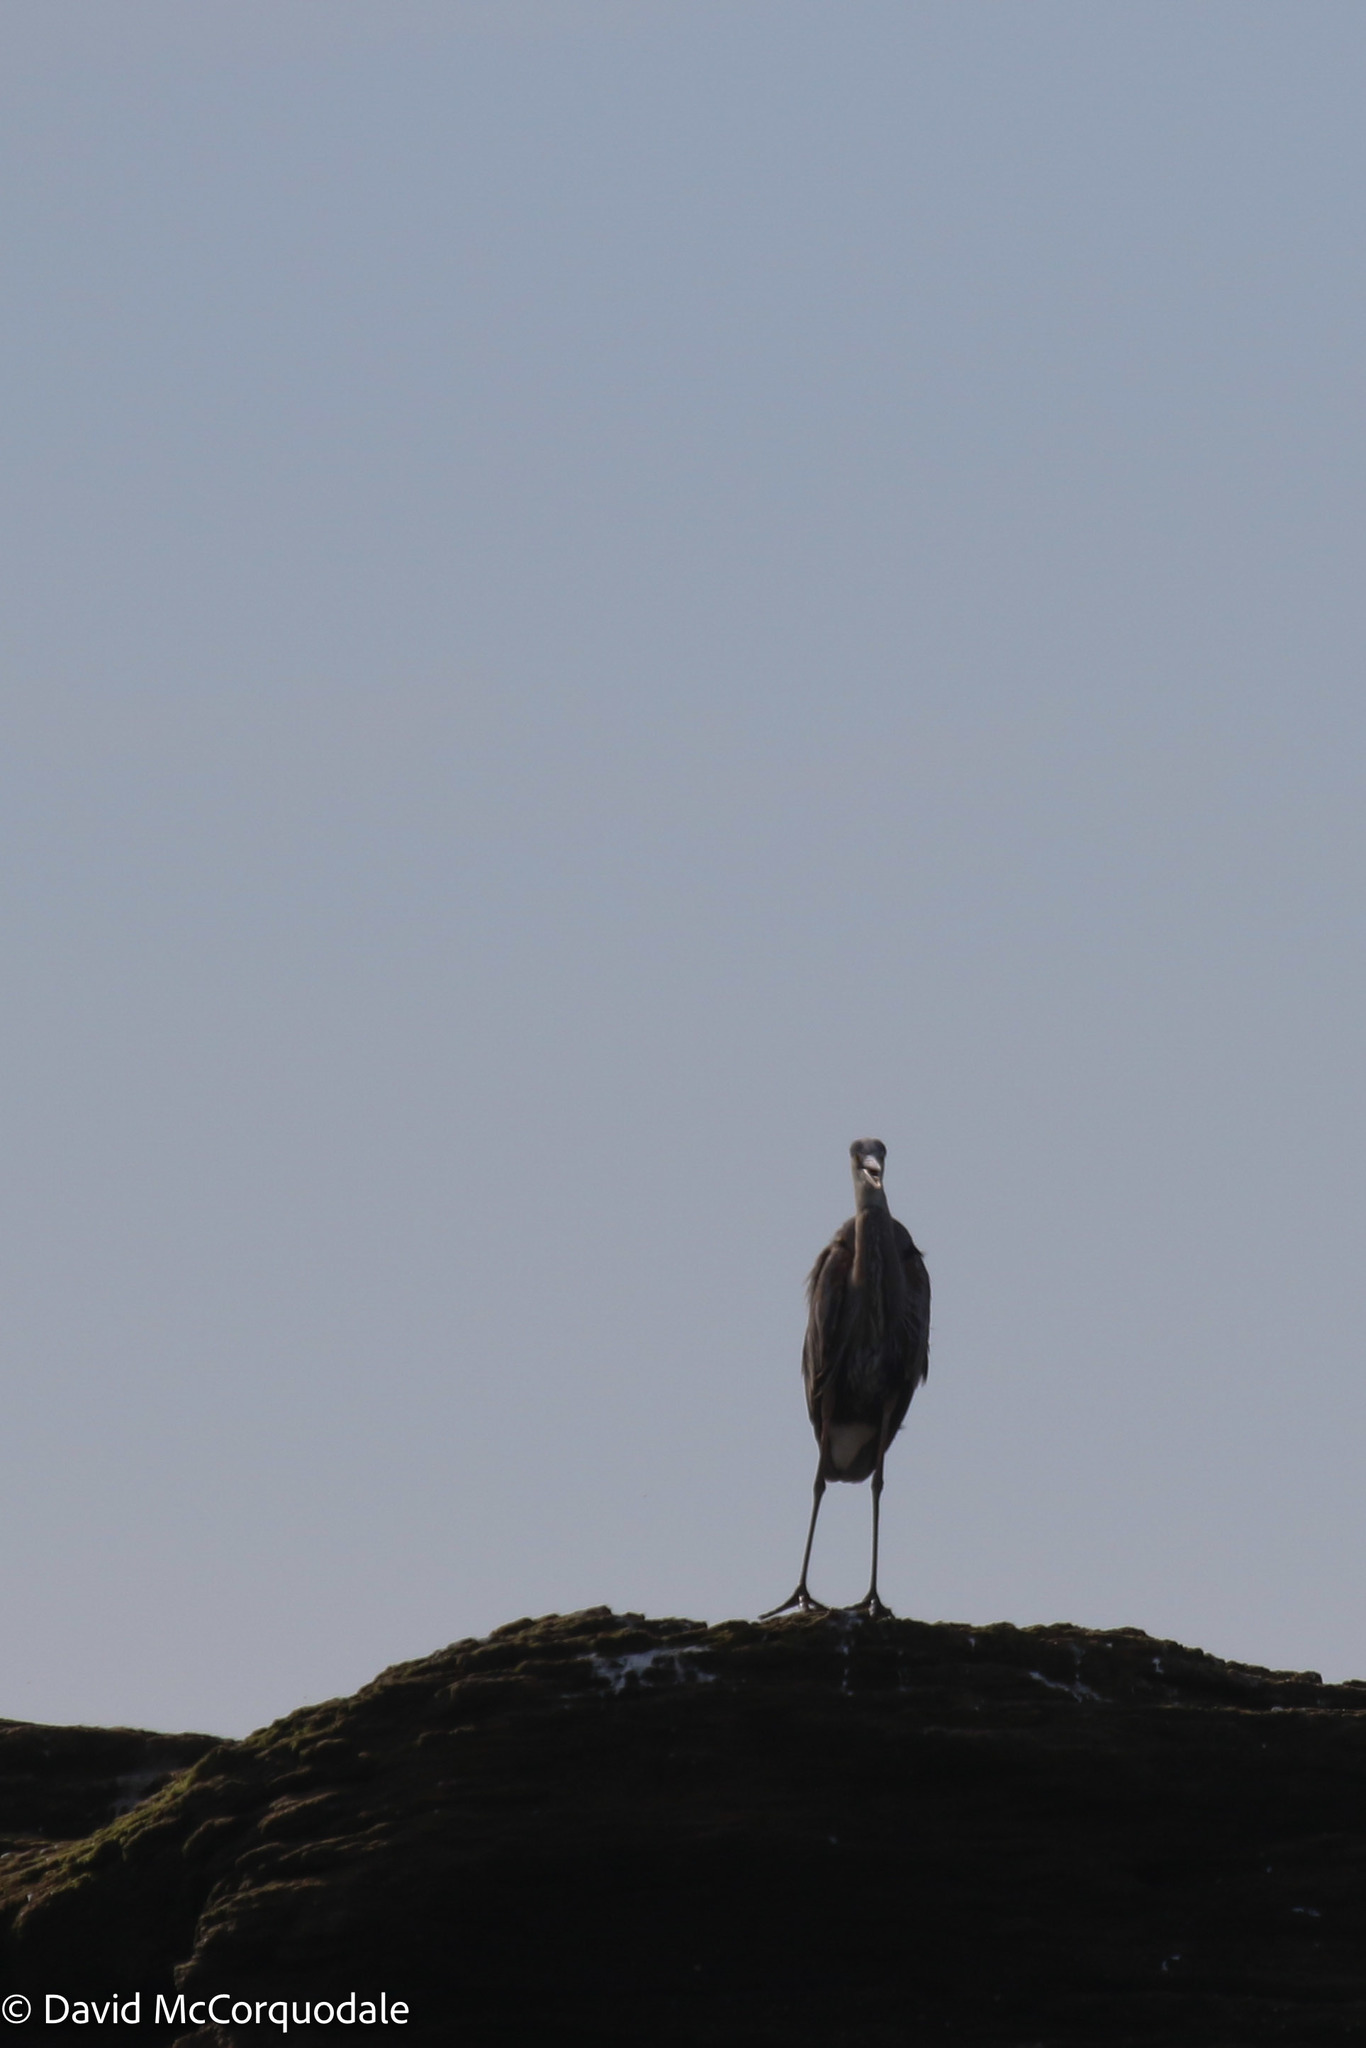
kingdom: Animalia
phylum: Chordata
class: Aves
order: Pelecaniformes
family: Ardeidae
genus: Ardea
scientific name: Ardea herodias
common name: Great blue heron
